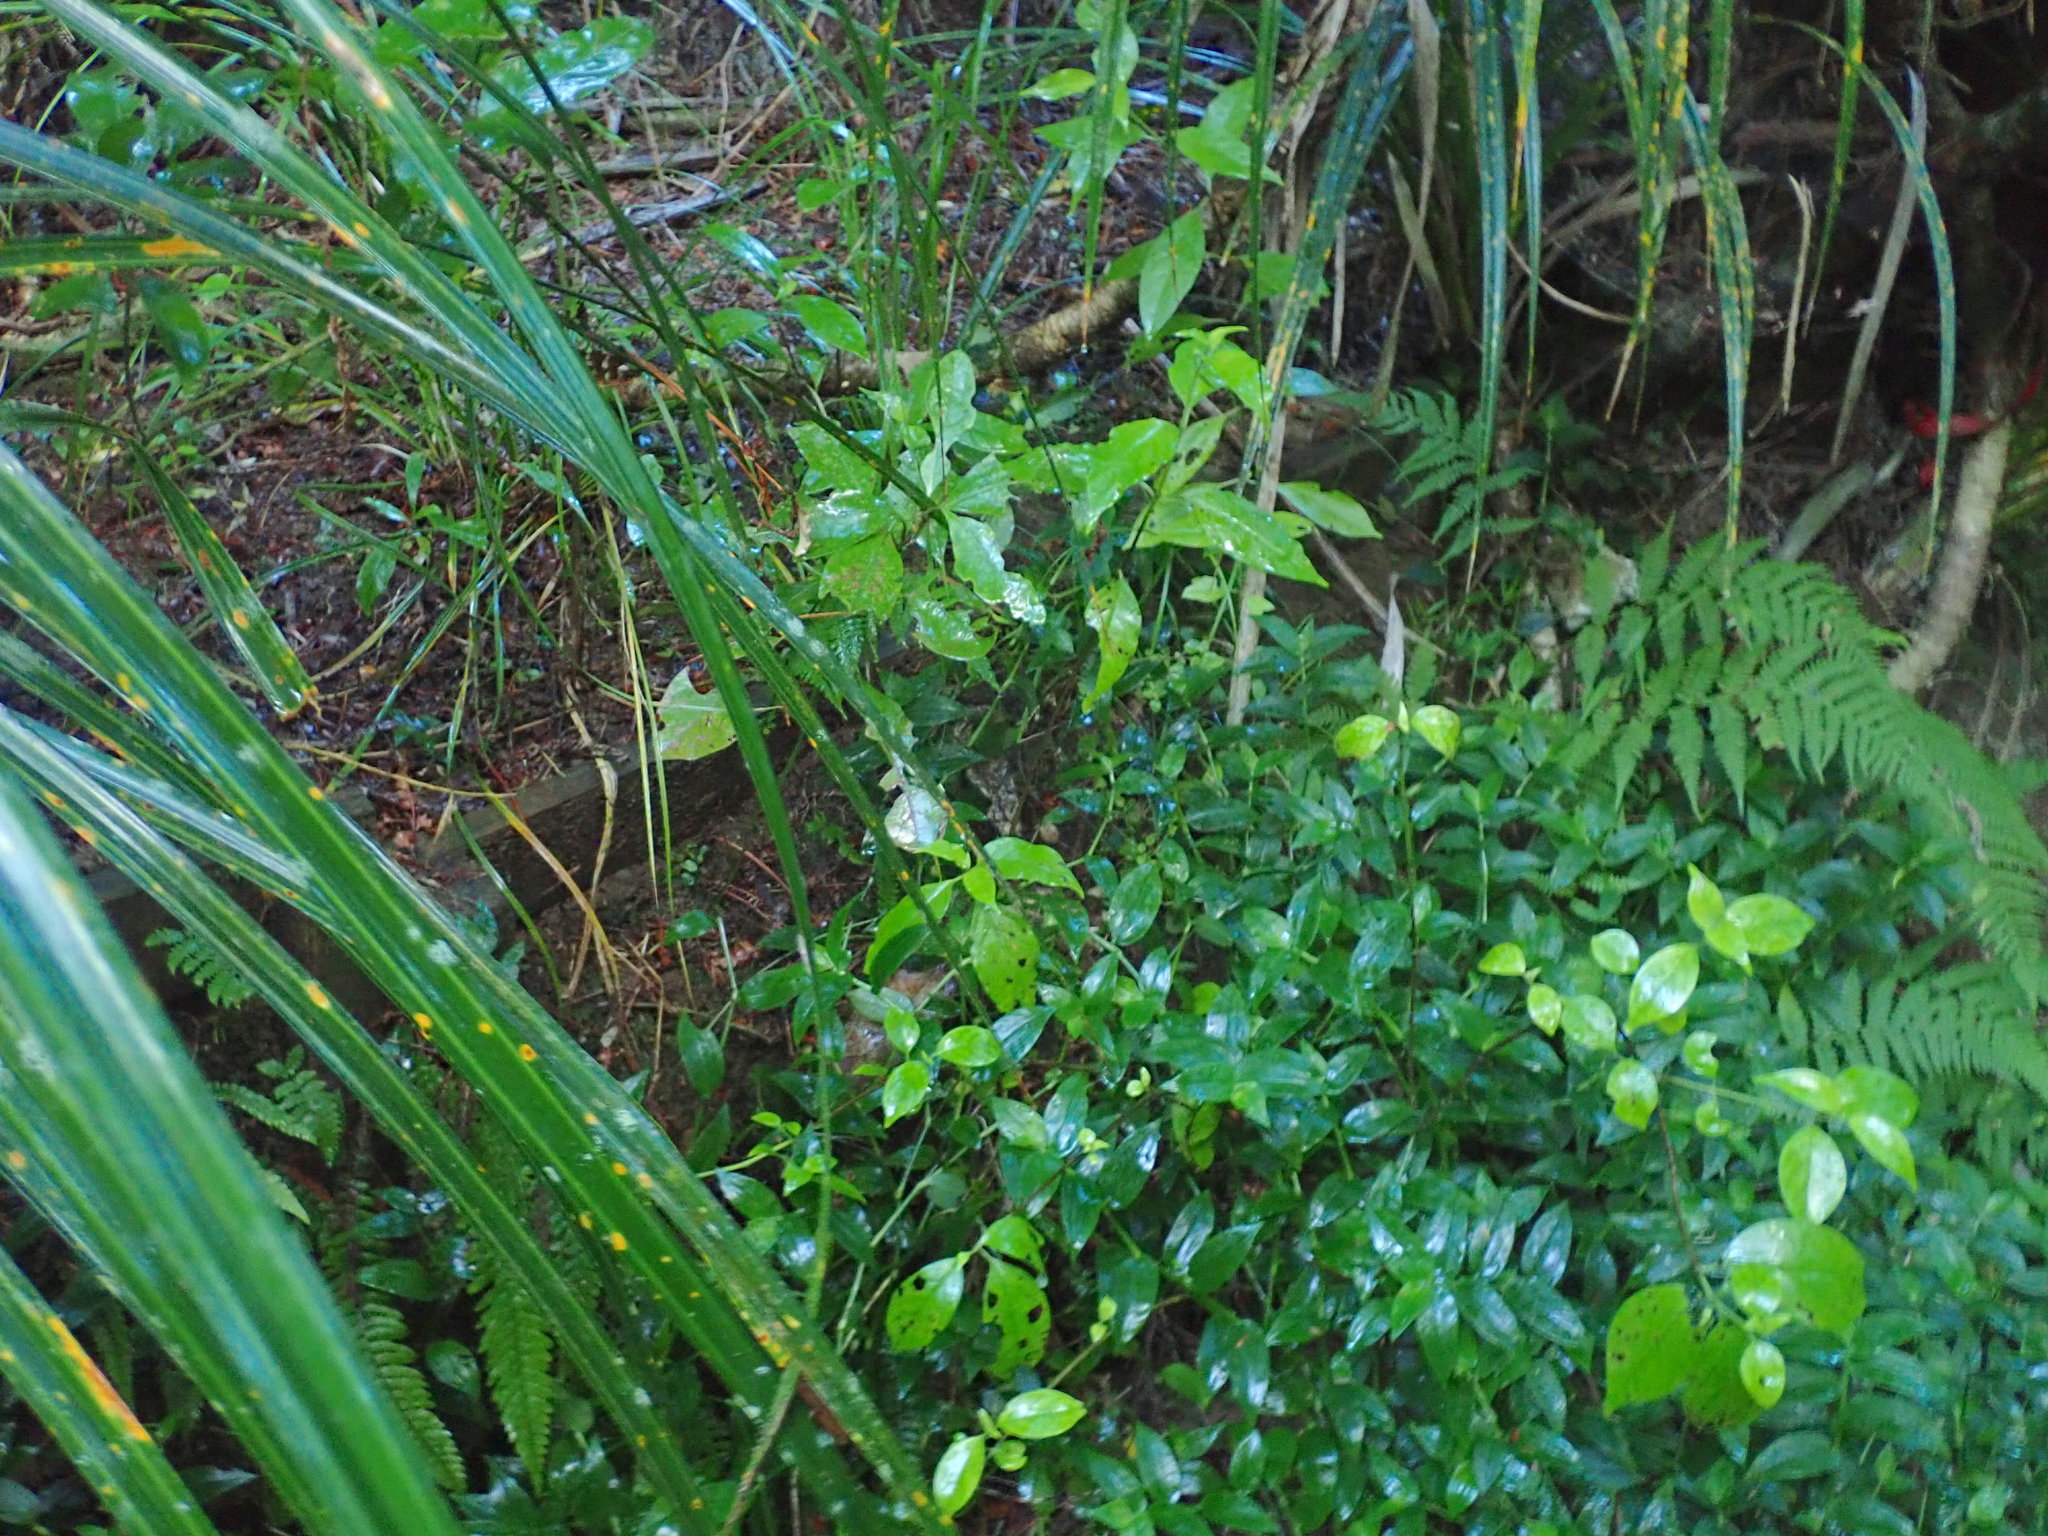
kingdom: Plantae
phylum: Tracheophyta
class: Magnoliopsida
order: Gentianales
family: Loganiaceae
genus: Geniostoma
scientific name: Geniostoma ligustrifolium
